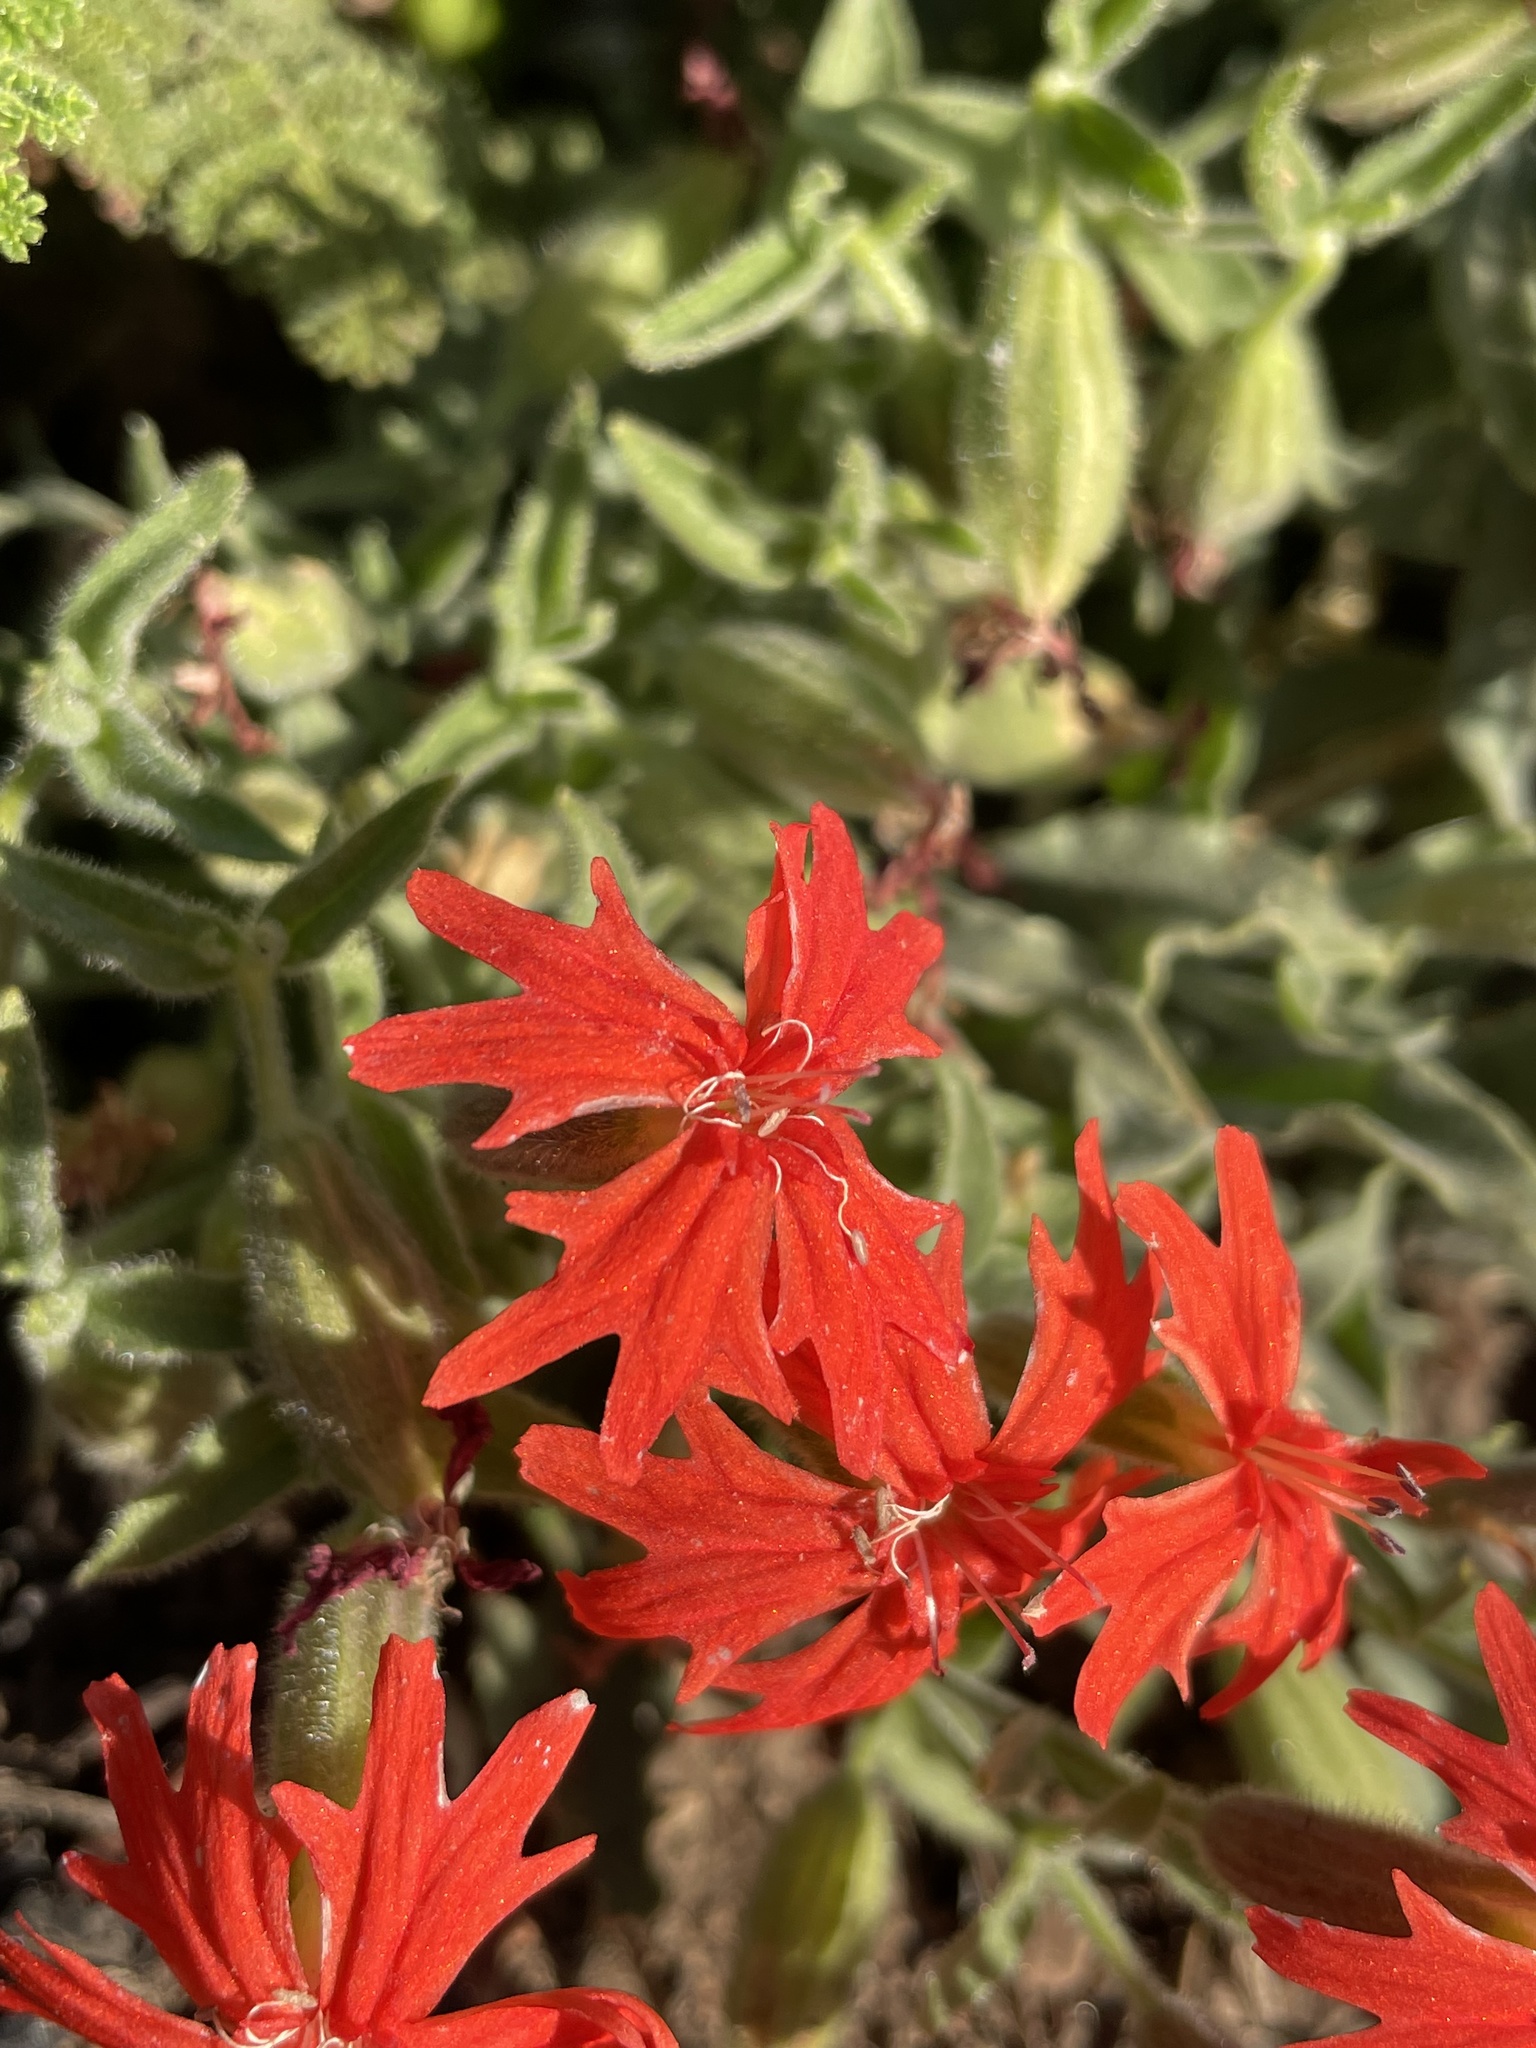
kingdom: Plantae
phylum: Tracheophyta
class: Magnoliopsida
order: Caryophyllales
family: Caryophyllaceae
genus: Silene
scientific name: Silene laciniata
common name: Indian-pink
